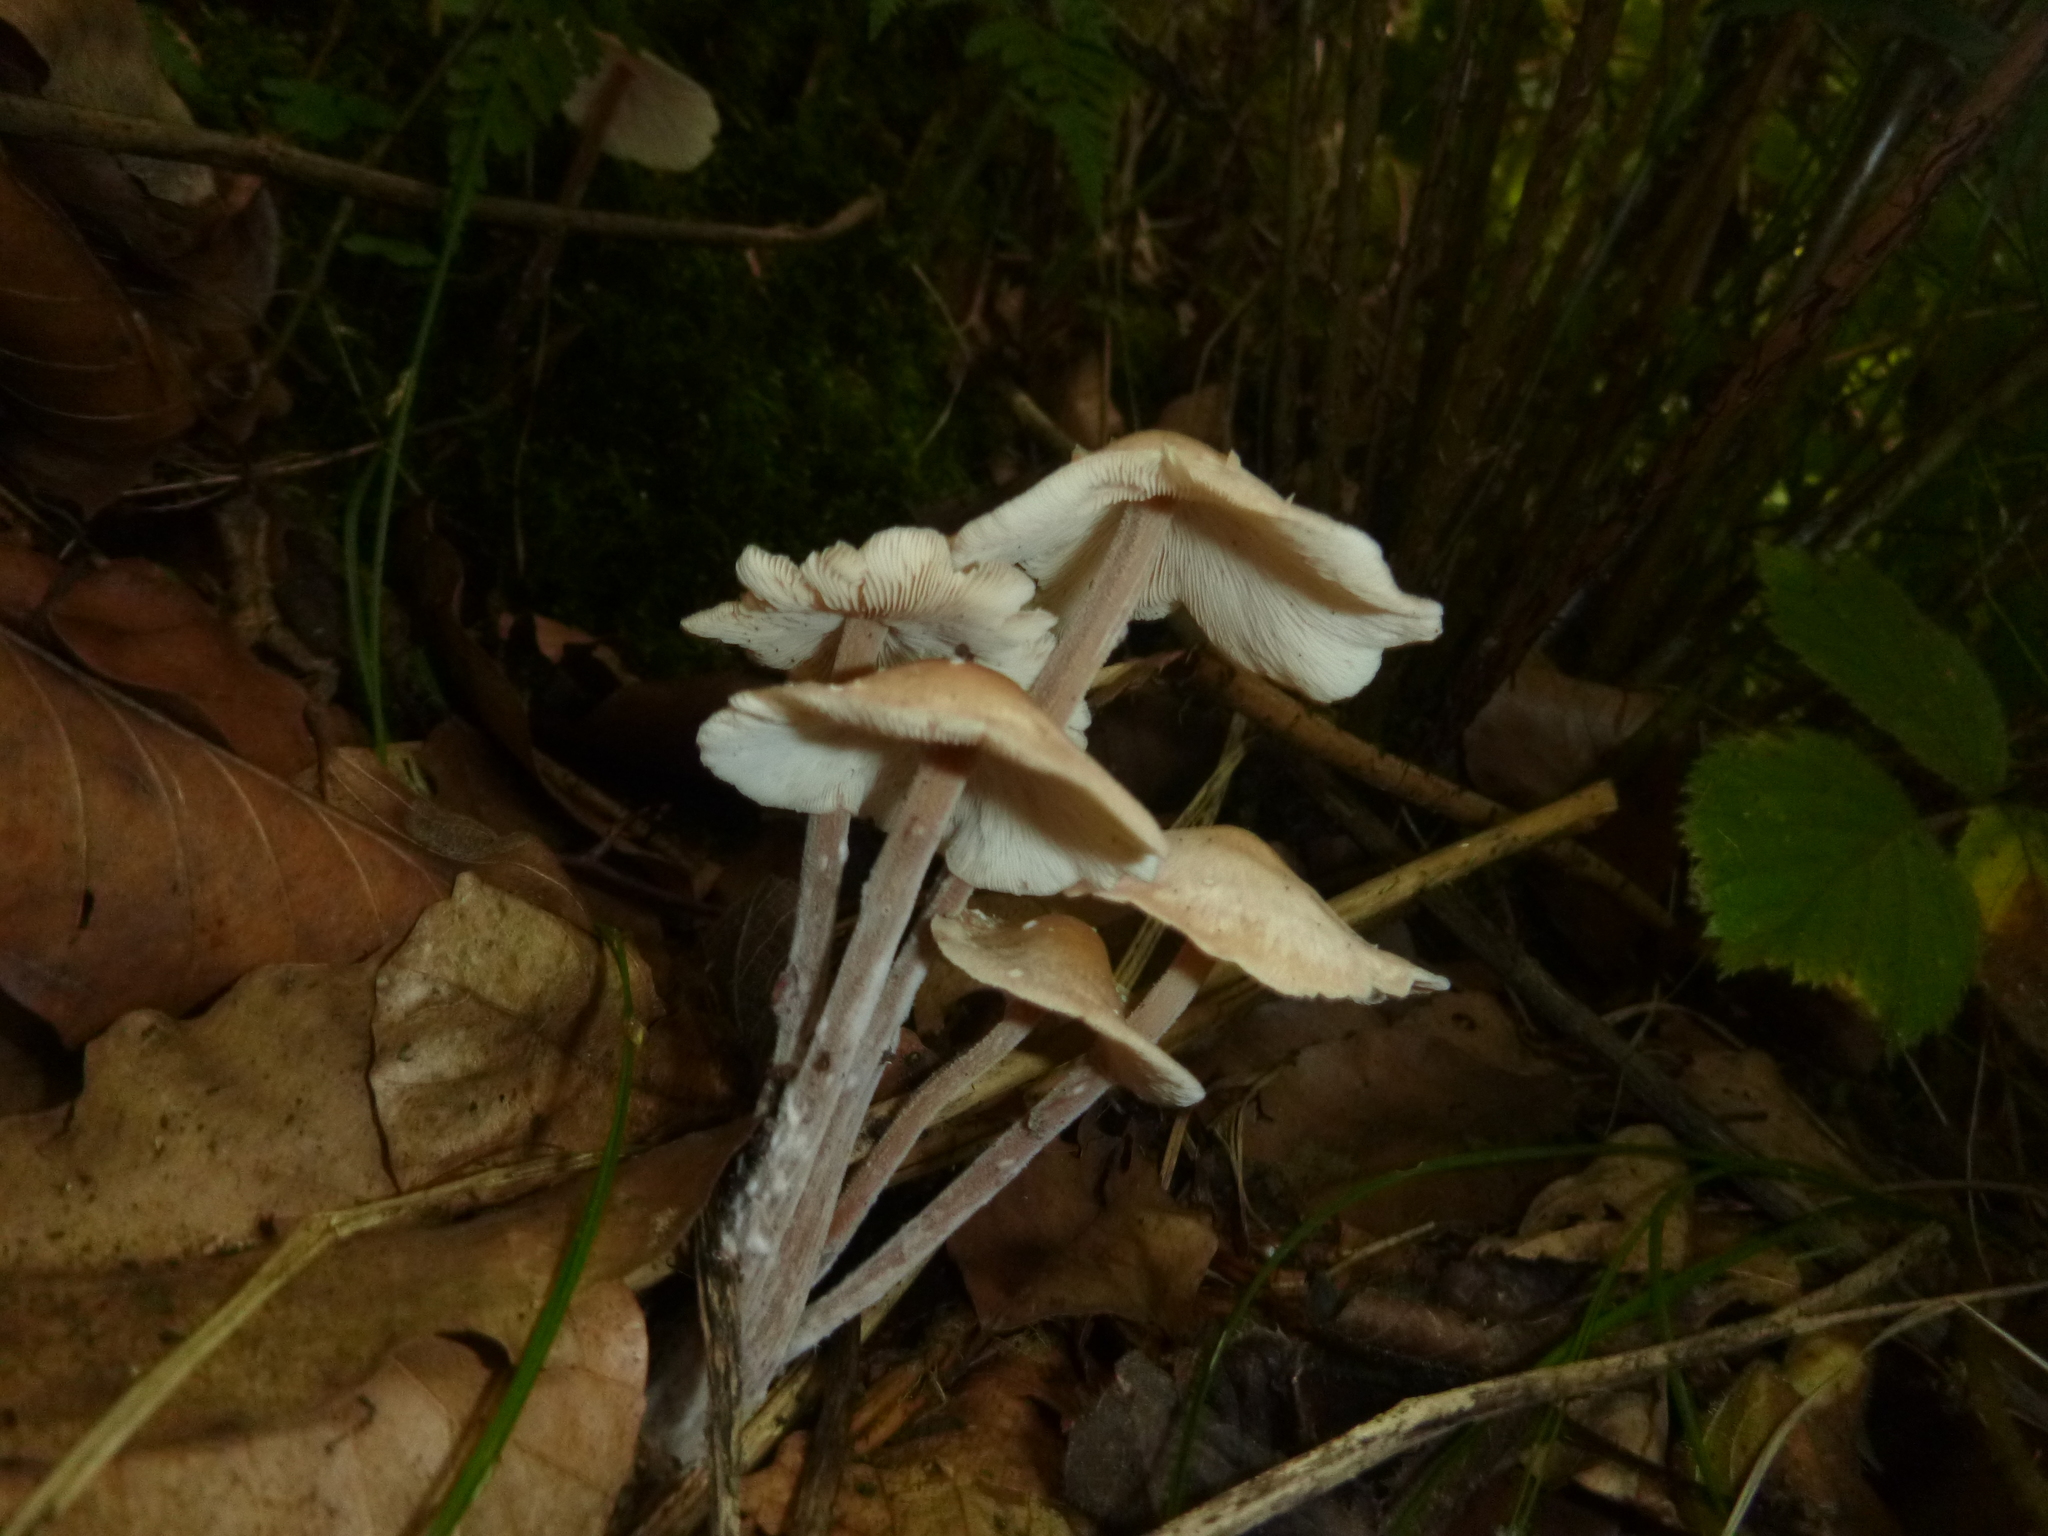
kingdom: Fungi
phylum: Basidiomycota
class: Agaricomycetes
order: Agaricales
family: Omphalotaceae
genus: Collybiopsis
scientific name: Collybiopsis confluens
